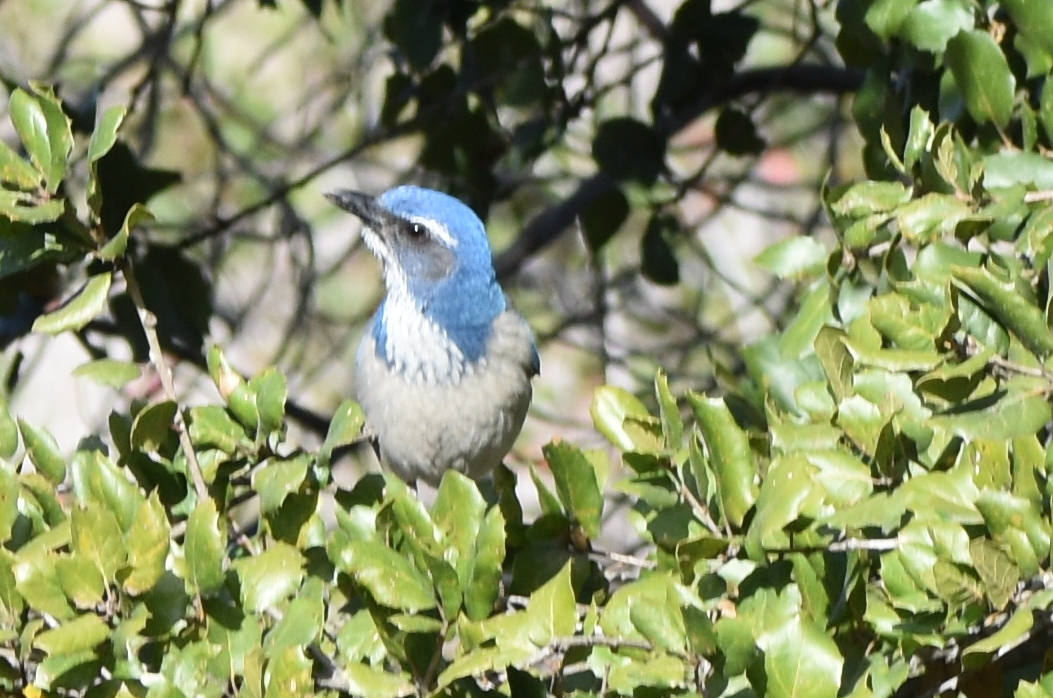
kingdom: Animalia
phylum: Chordata
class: Aves
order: Passeriformes
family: Corvidae
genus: Aphelocoma
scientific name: Aphelocoma californica
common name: California scrub-jay
